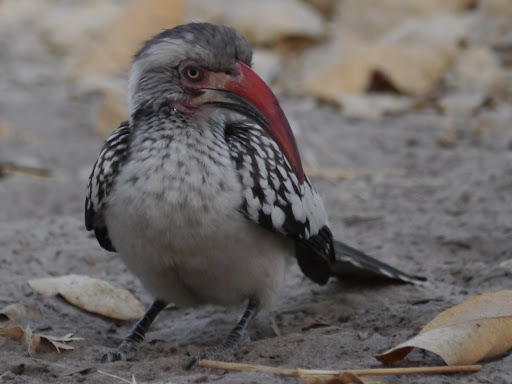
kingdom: Animalia
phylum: Chordata
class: Aves
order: Bucerotiformes
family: Bucerotidae
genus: Tockus
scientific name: Tockus rufirostris
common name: Southern red-billed hornbill
